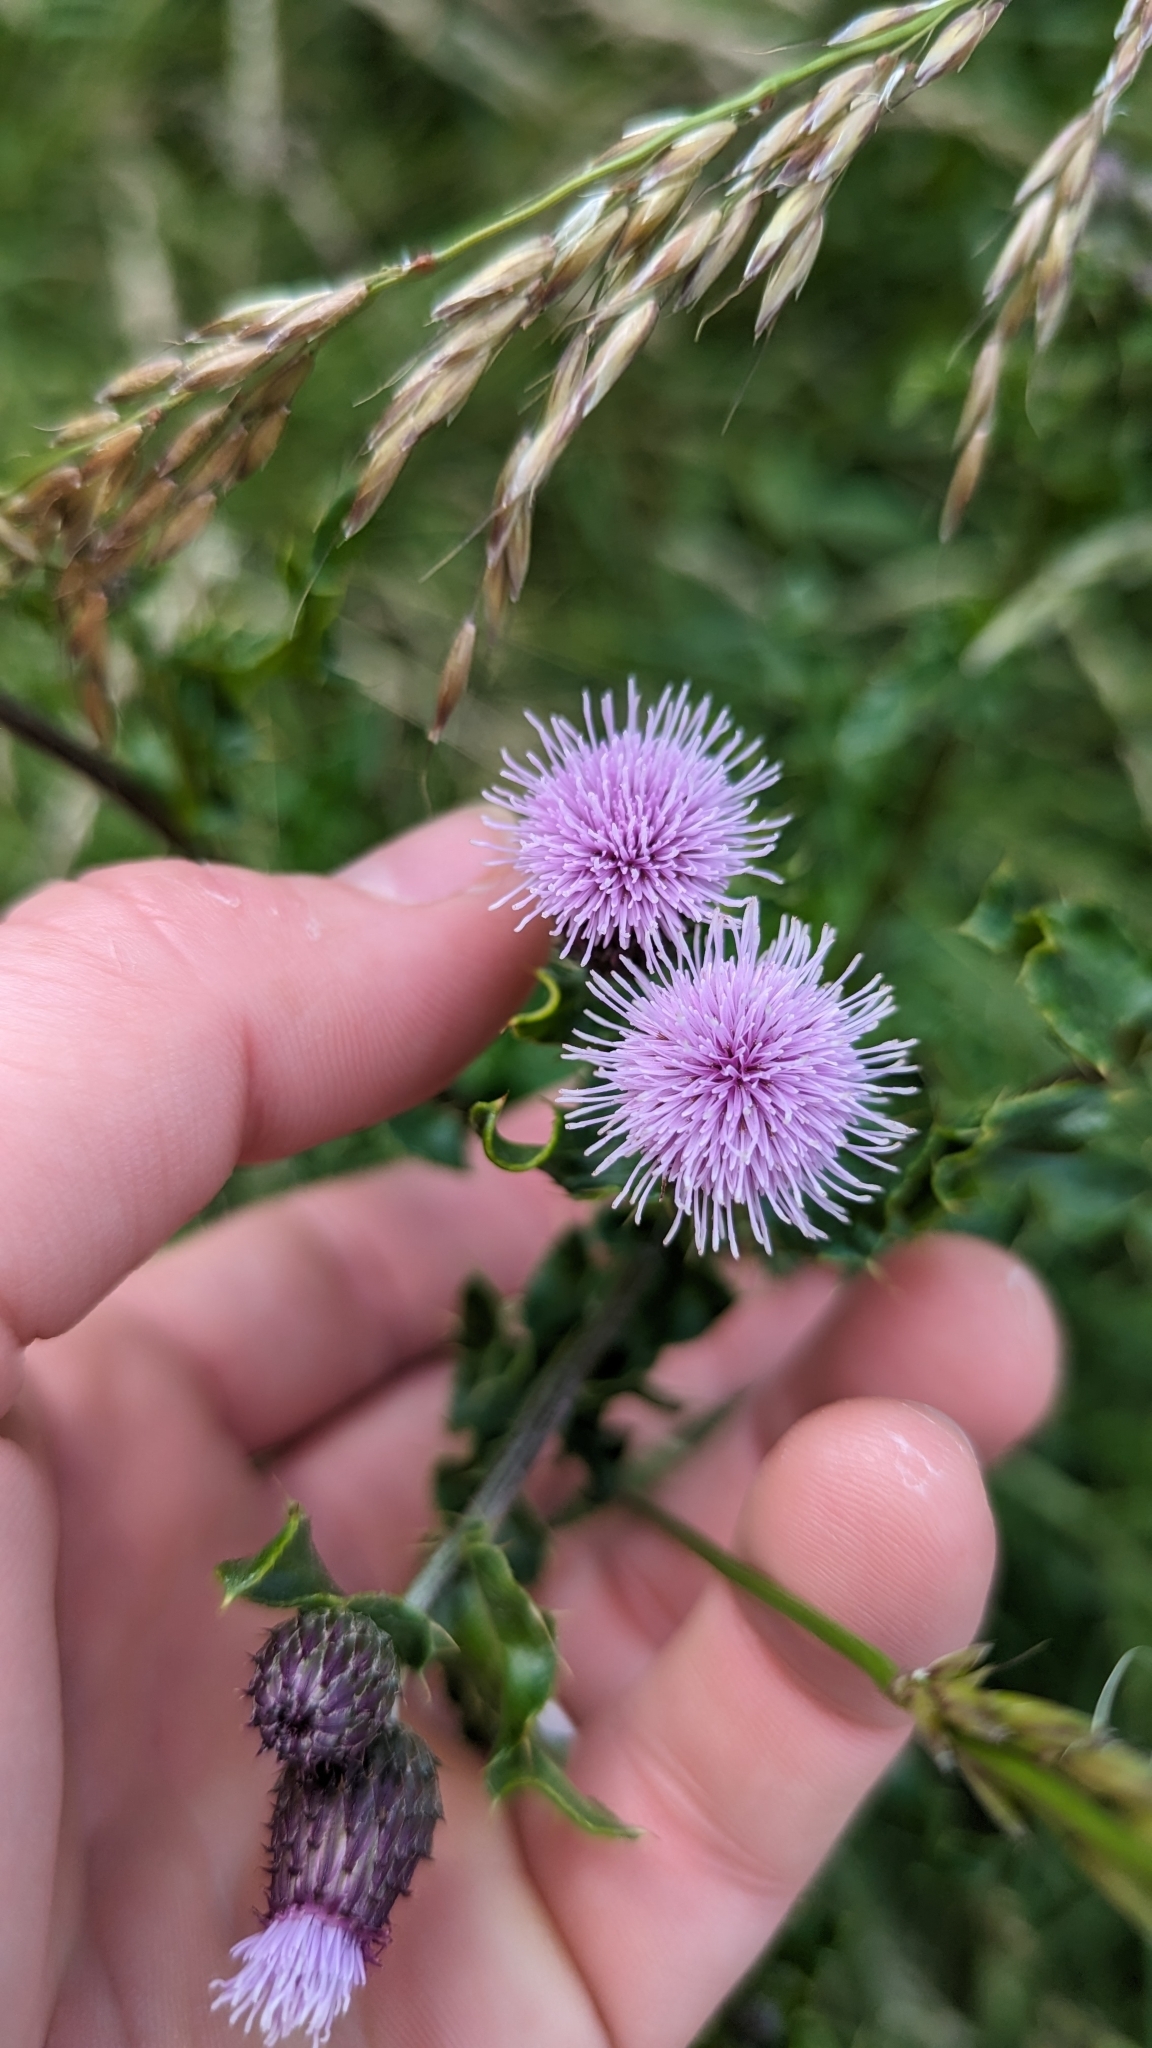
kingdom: Plantae
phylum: Tracheophyta
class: Magnoliopsida
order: Asterales
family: Asteraceae
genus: Cirsium
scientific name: Cirsium arvense
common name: Creeping thistle
